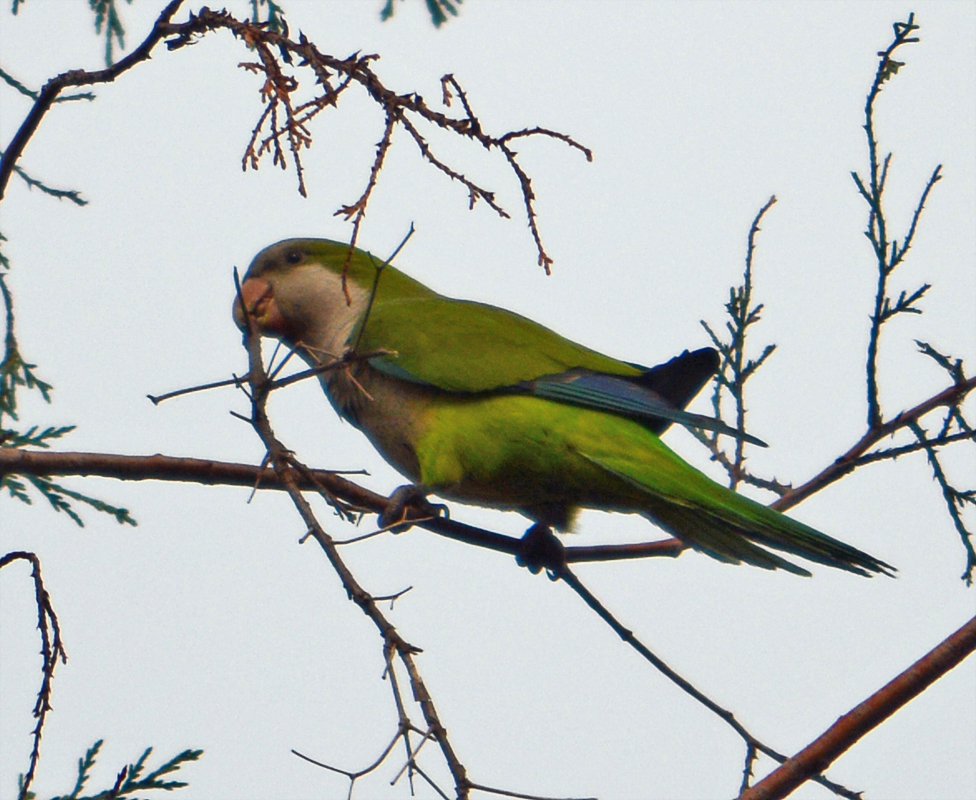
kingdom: Animalia
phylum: Chordata
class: Aves
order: Psittaciformes
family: Psittacidae
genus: Myiopsitta
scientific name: Myiopsitta monachus
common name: Monk parakeet
